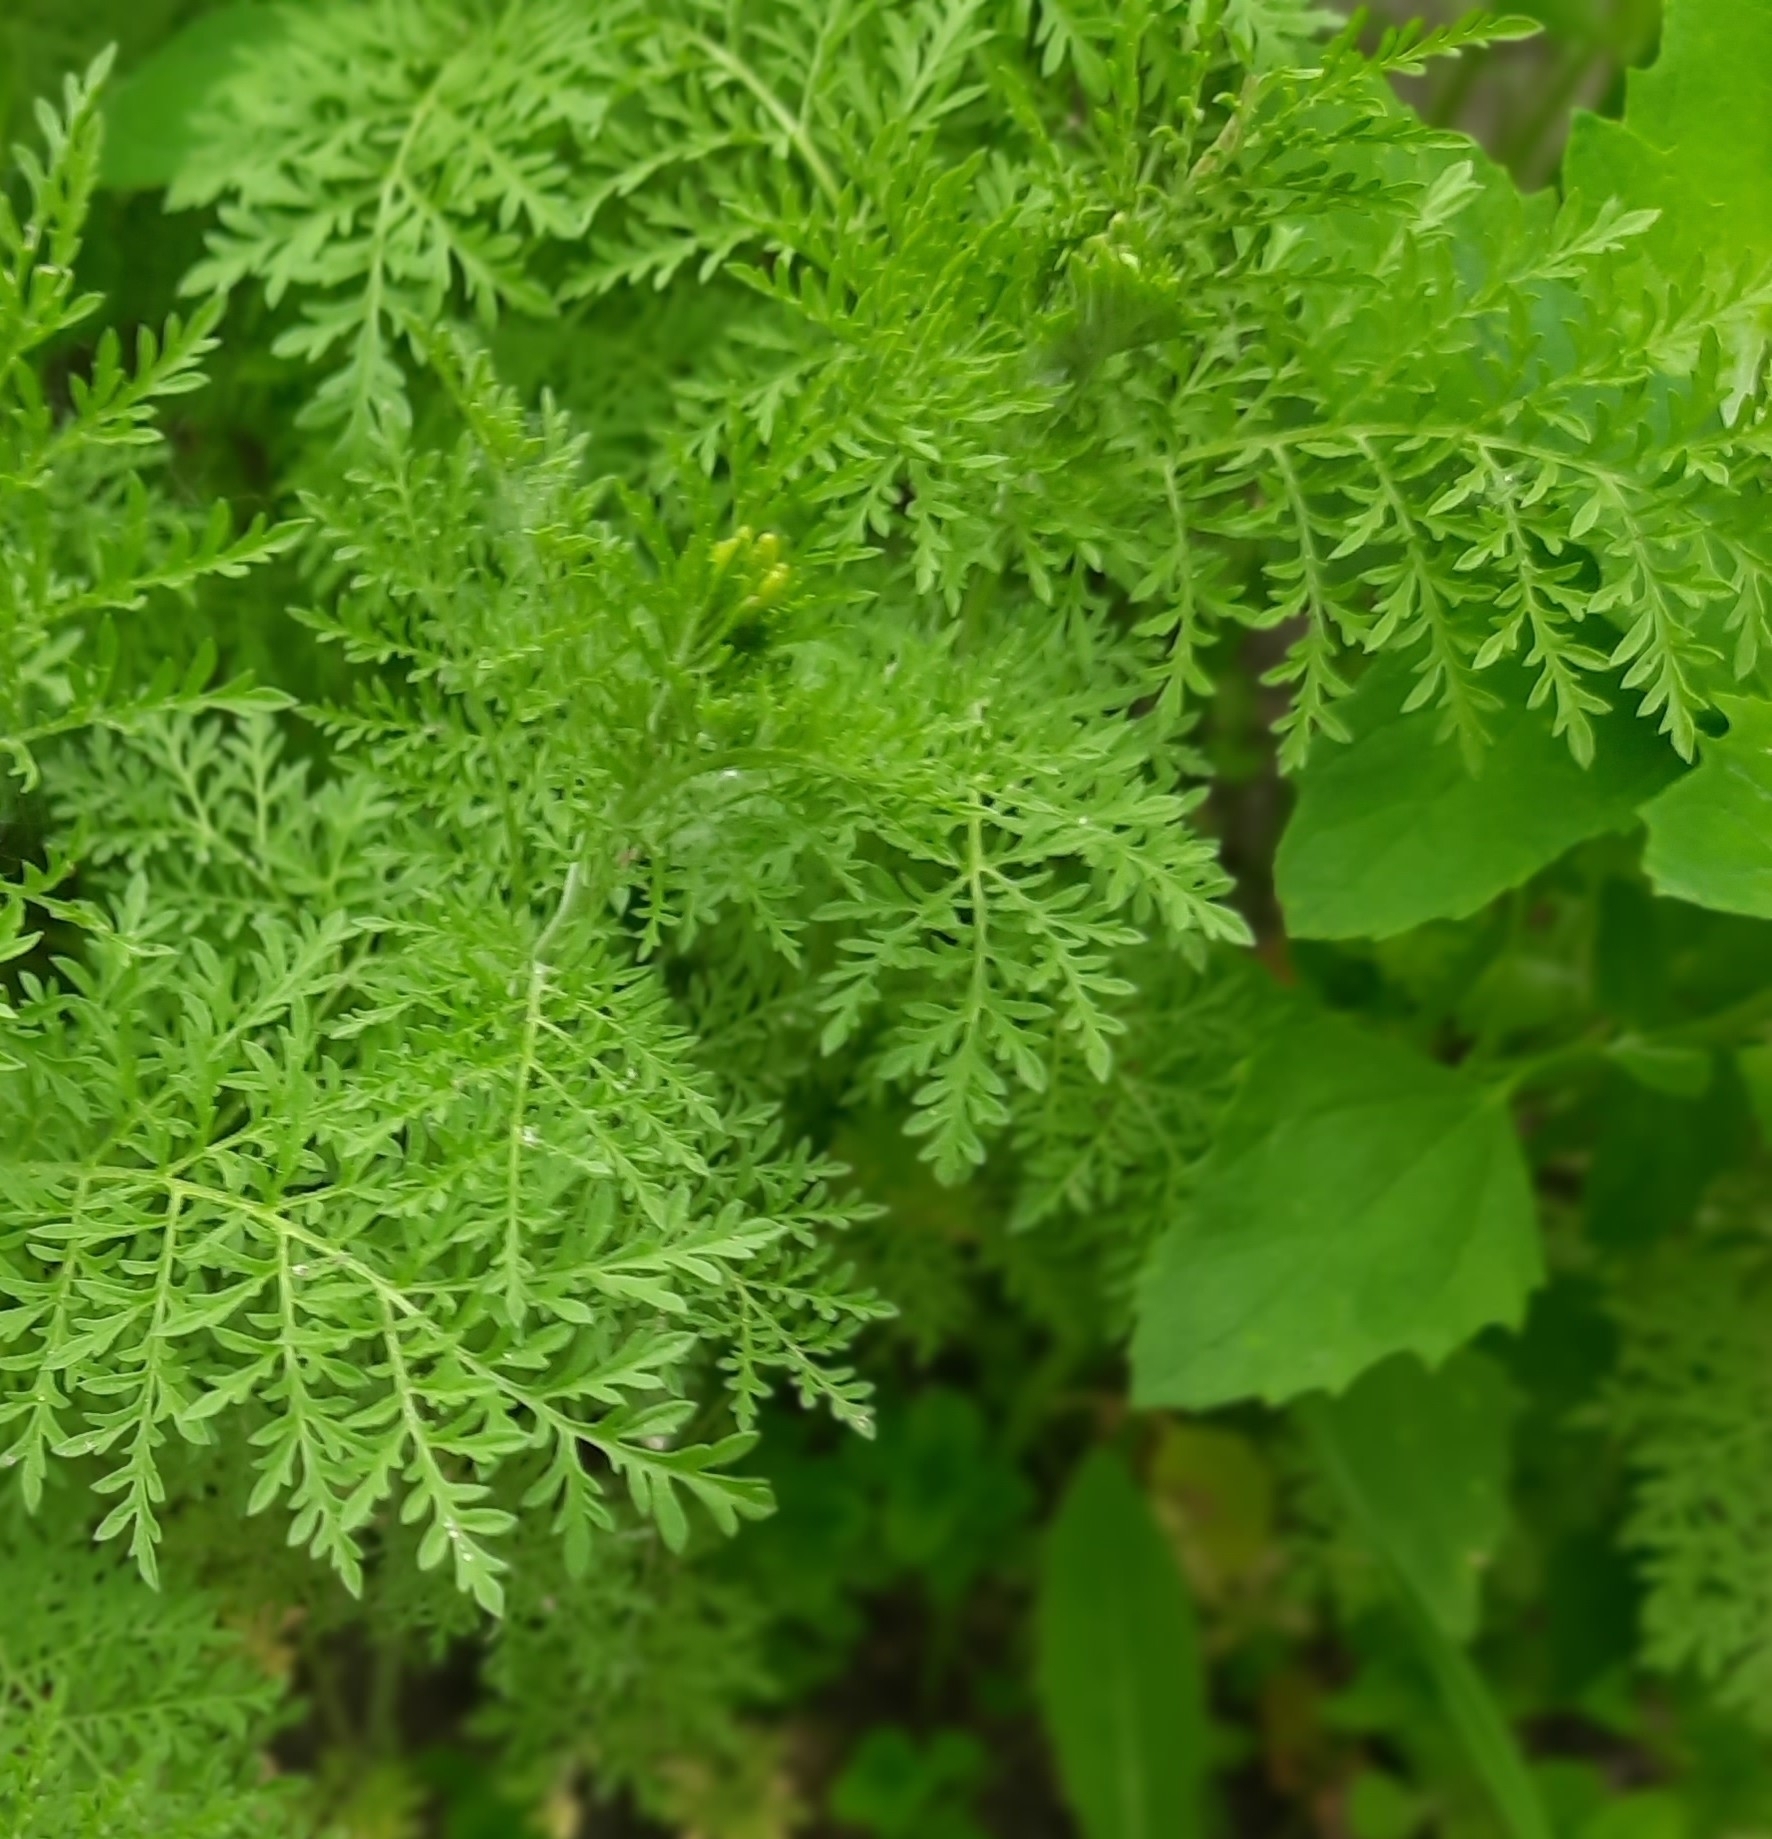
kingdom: Plantae
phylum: Tracheophyta
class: Magnoliopsida
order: Brassicales
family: Brassicaceae
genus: Descurainia
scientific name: Descurainia sophia
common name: Flixweed
